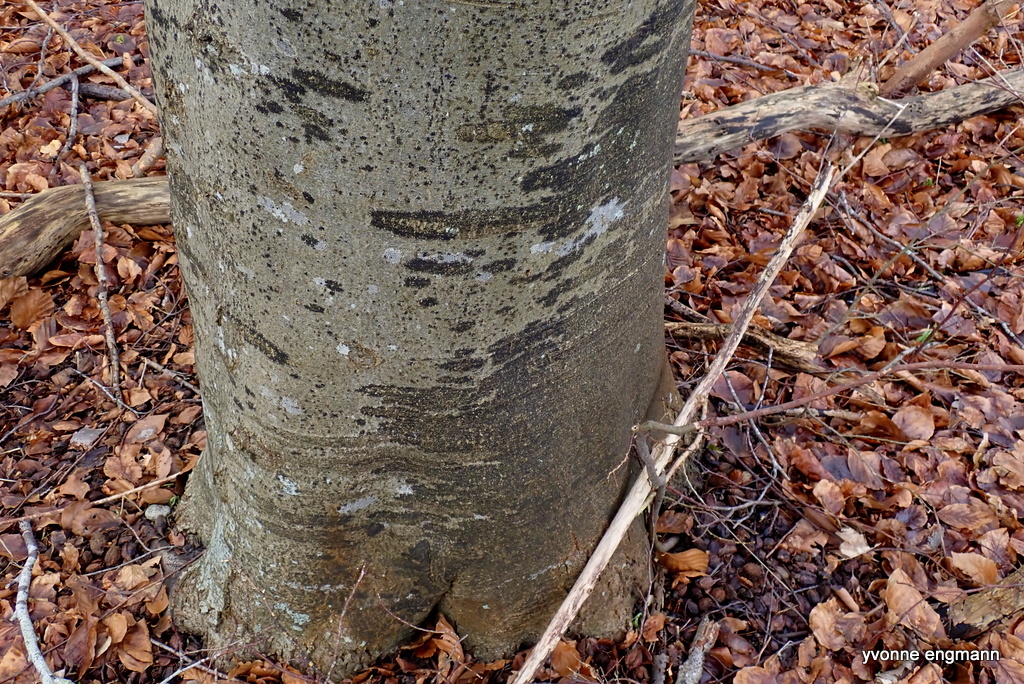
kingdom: Fungi
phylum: Ascomycota
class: Leotiomycetes
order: Rhytismatales
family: Ascodichaenaceae
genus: Ascodichaena
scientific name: Ascodichaena rugosa
